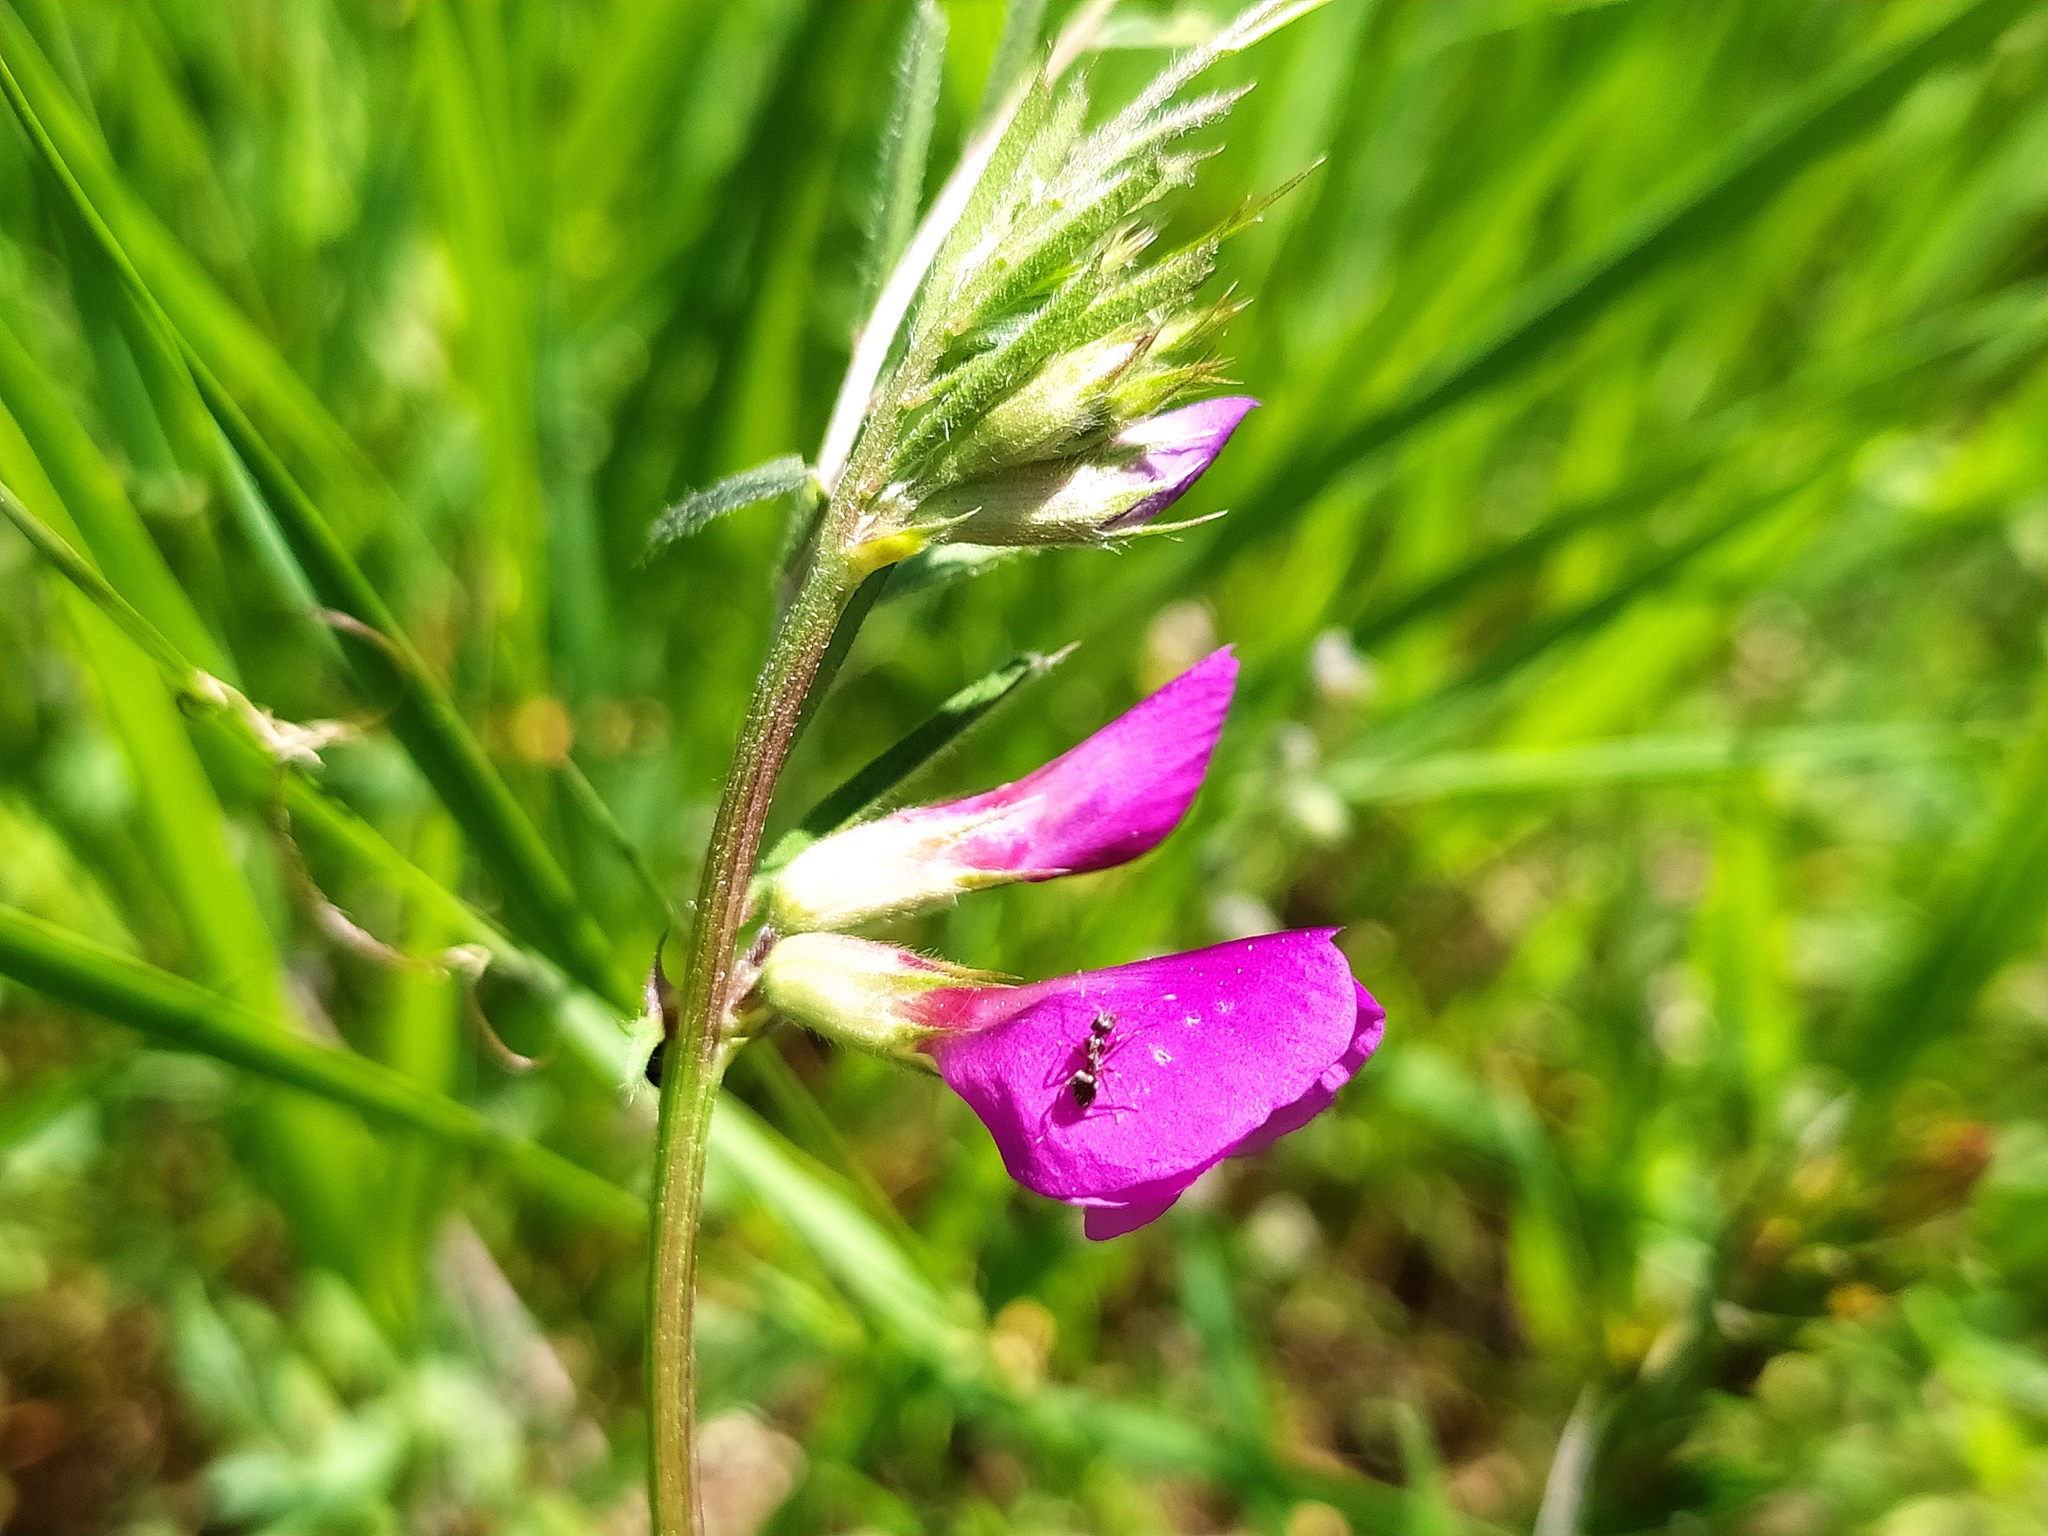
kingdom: Plantae
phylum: Tracheophyta
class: Magnoliopsida
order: Fabales
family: Fabaceae
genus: Vicia
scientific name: Vicia sativa
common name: Garden vetch
